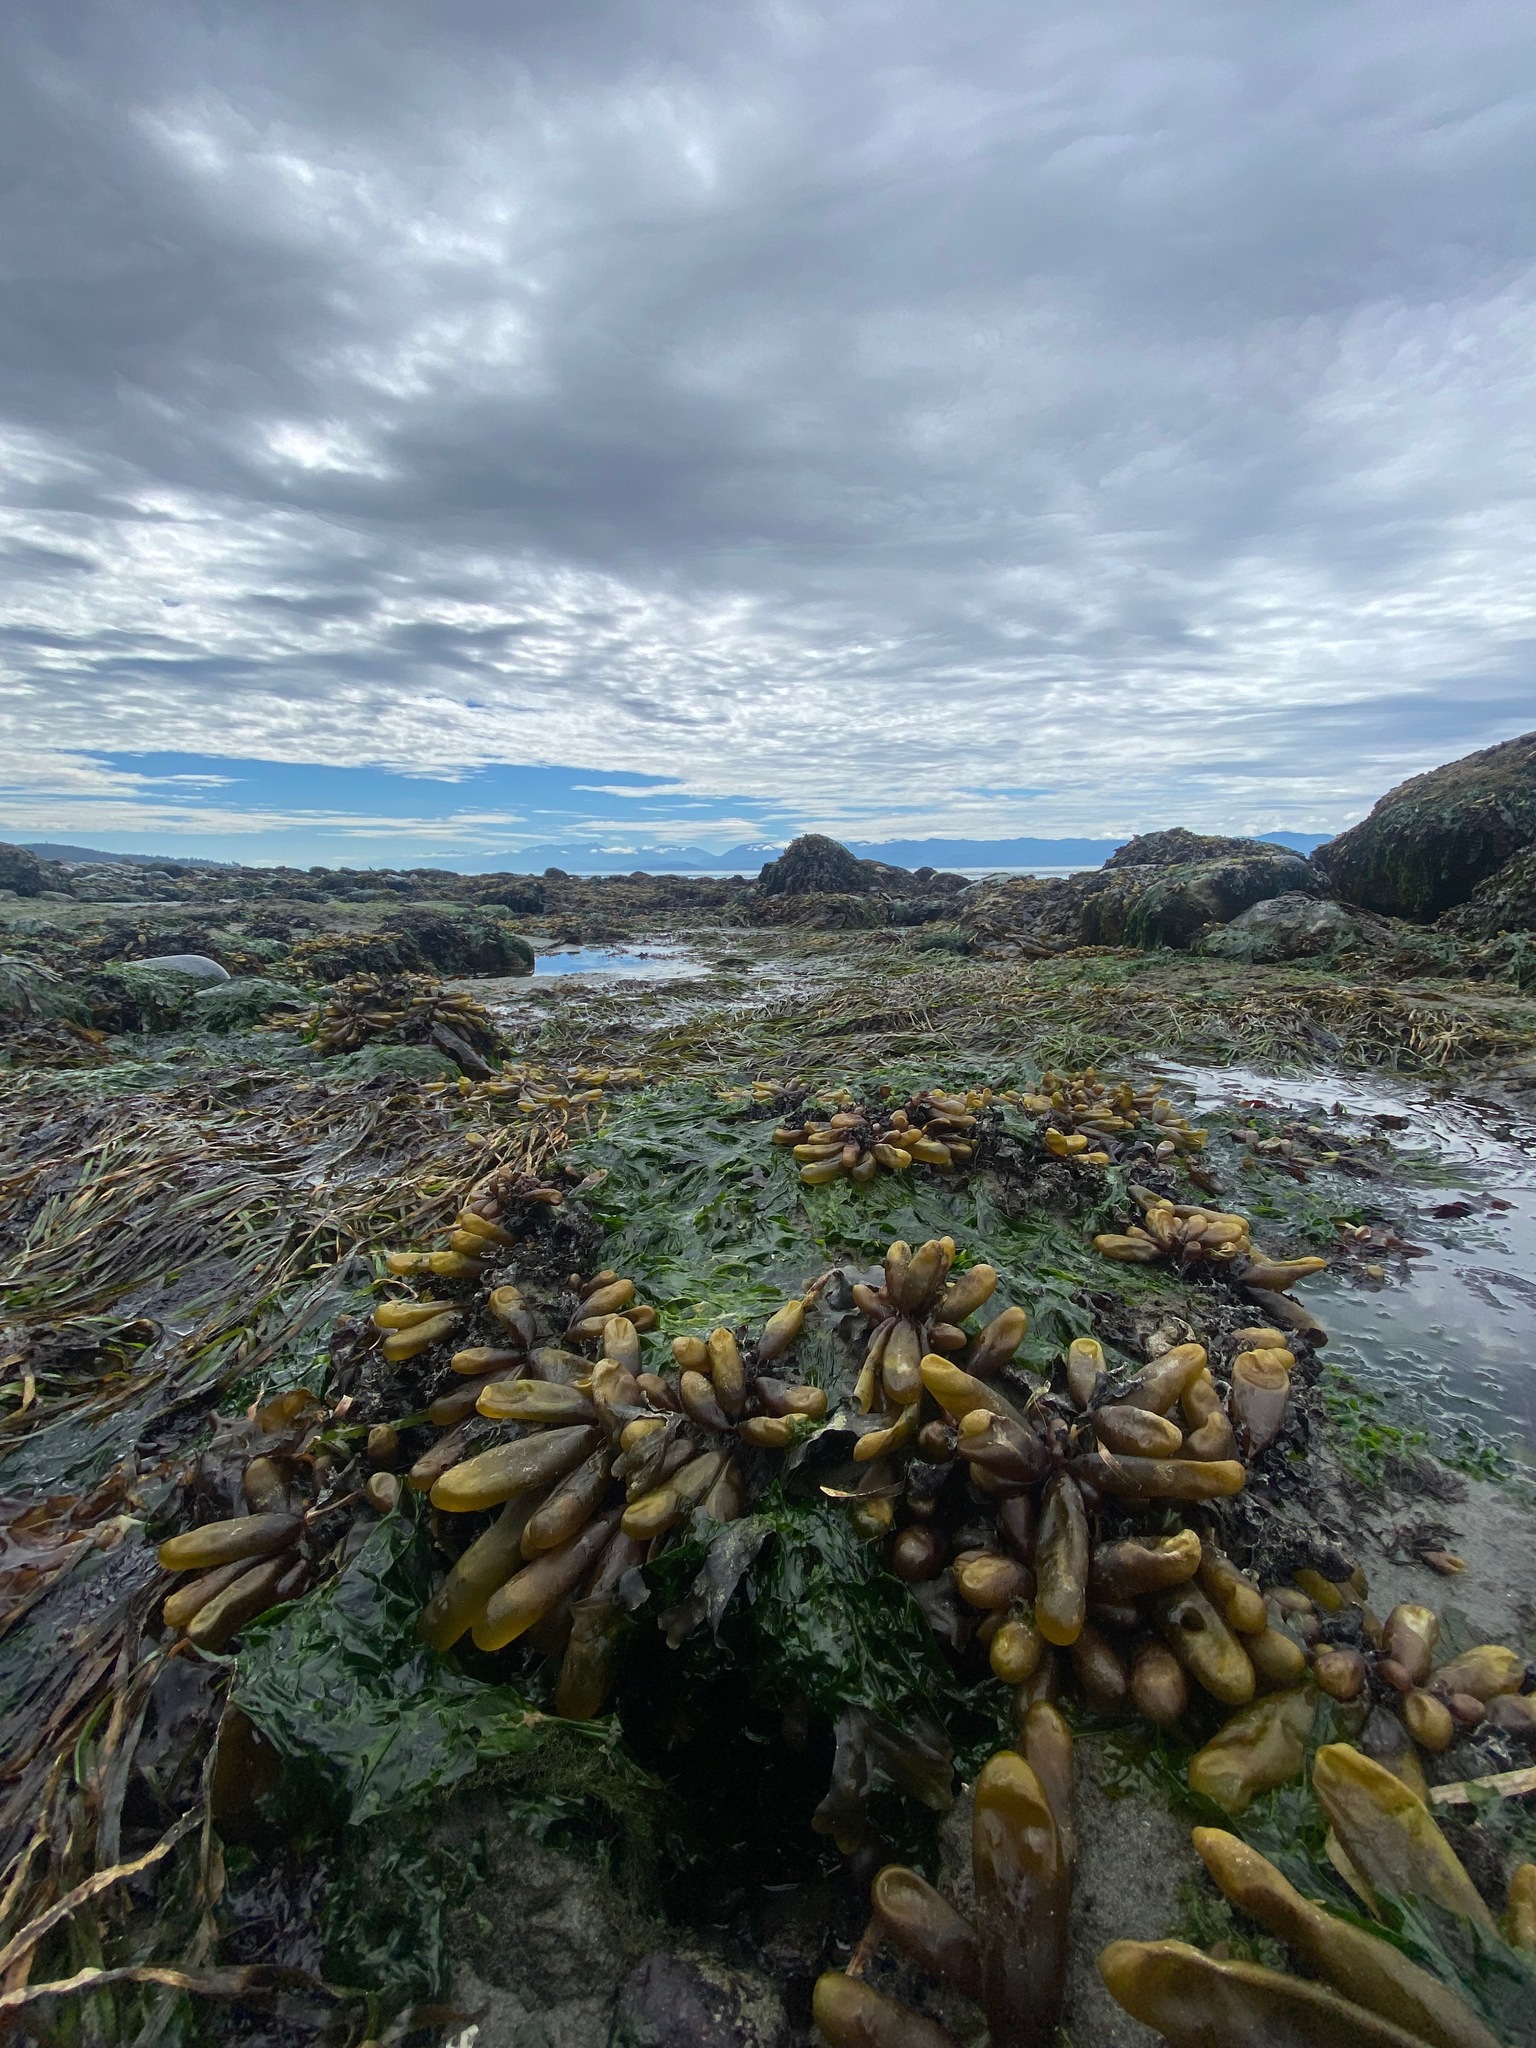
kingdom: Plantae
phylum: Rhodophyta
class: Florideophyceae
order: Palmariales
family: Palmariaceae
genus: Halosaccion
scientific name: Halosaccion glandiforme
